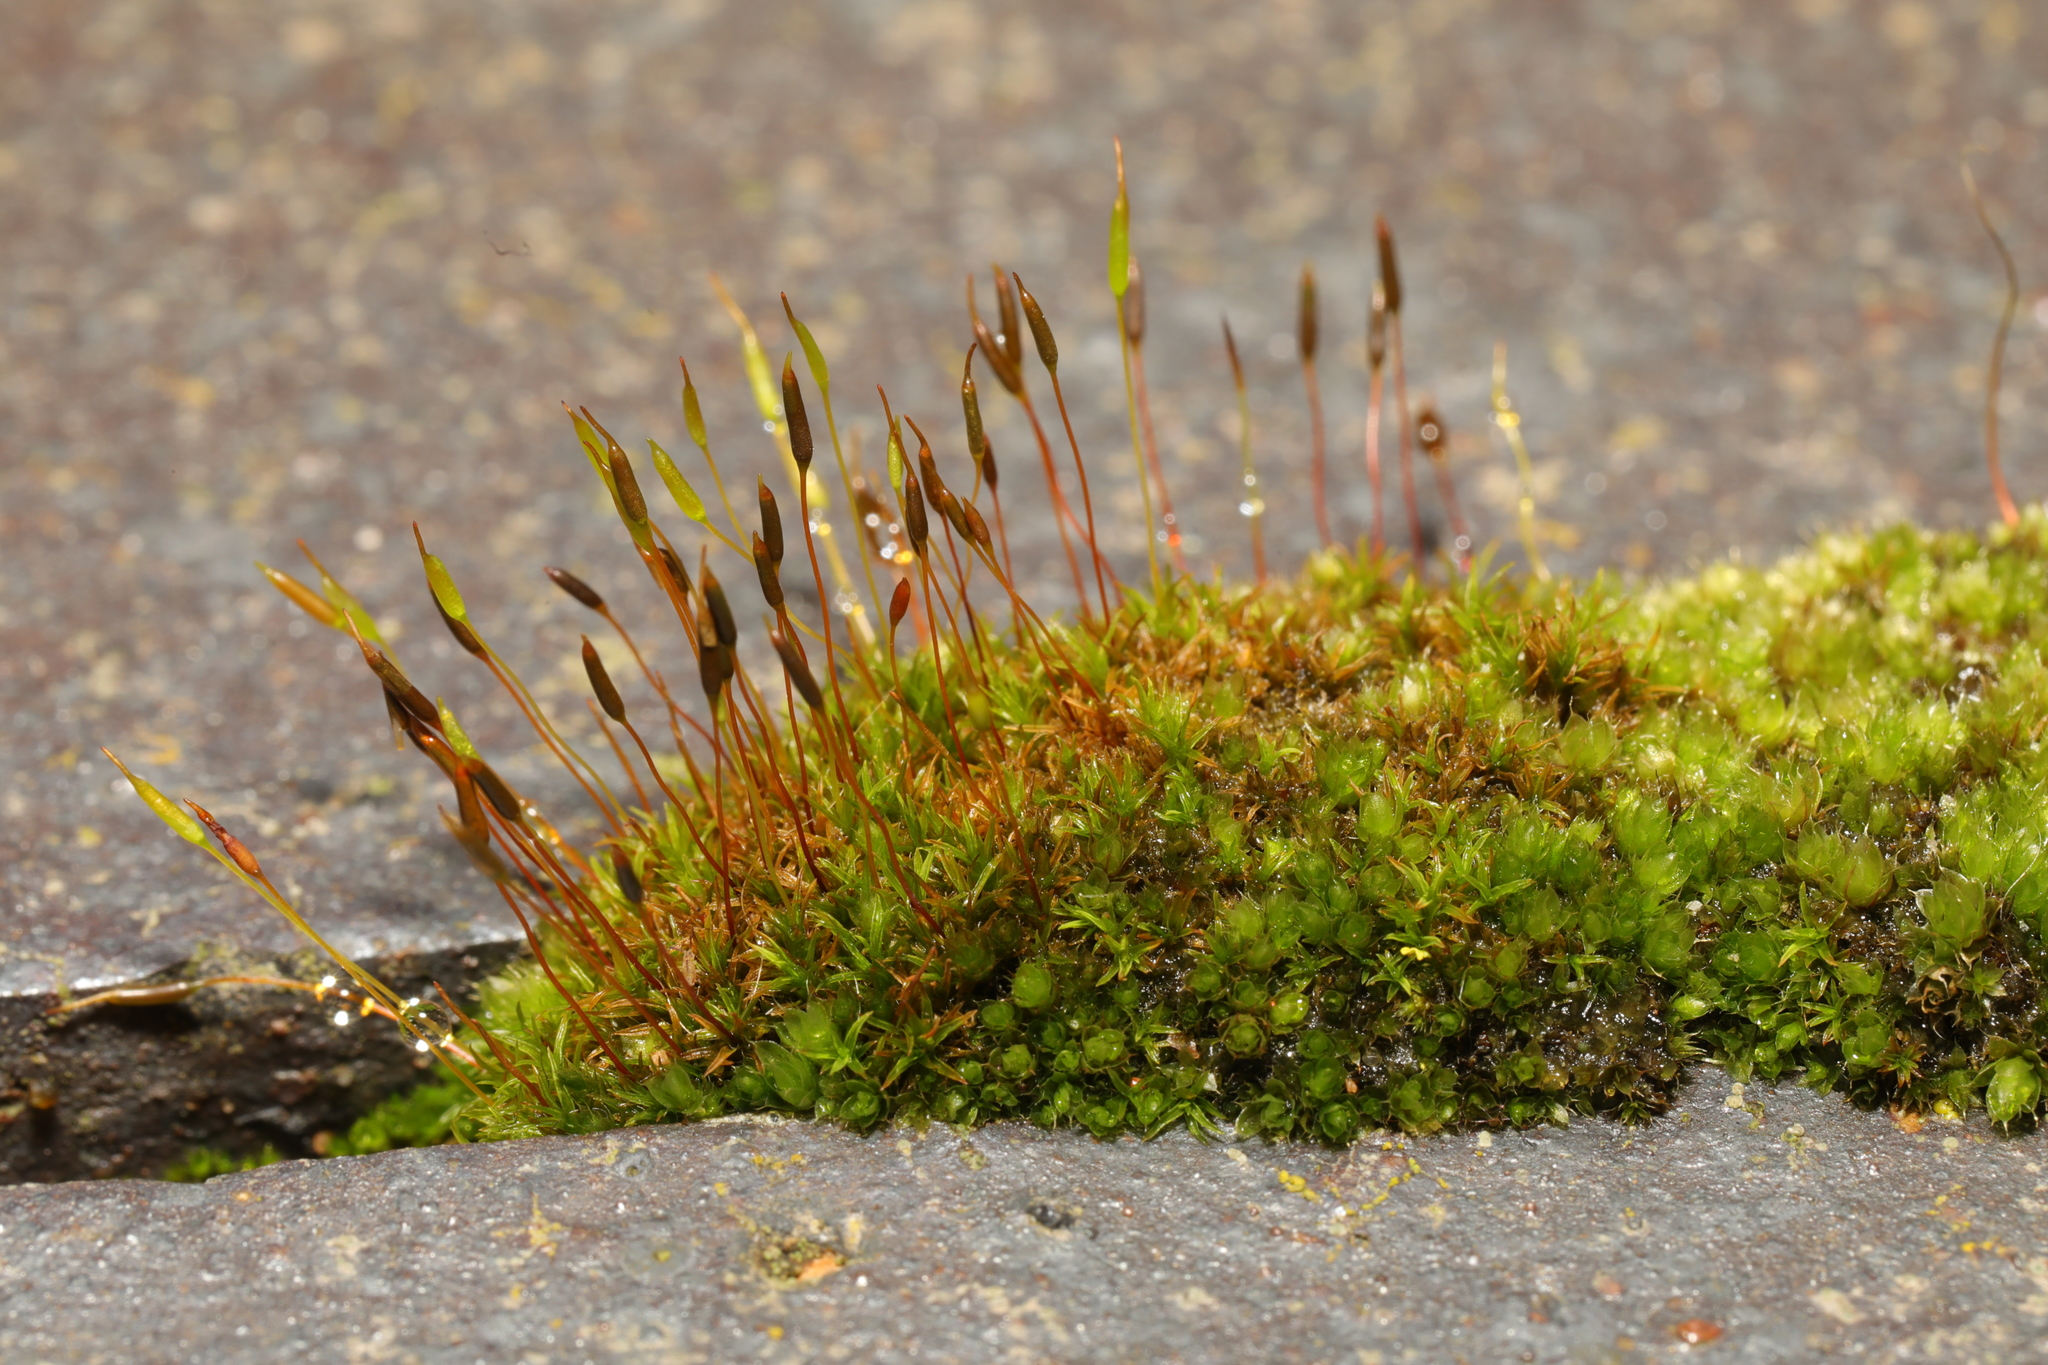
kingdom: Plantae
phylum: Bryophyta
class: Bryopsida
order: Pottiales
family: Pottiaceae
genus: Tortula
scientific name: Tortula muralis
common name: Wall screw-moss
